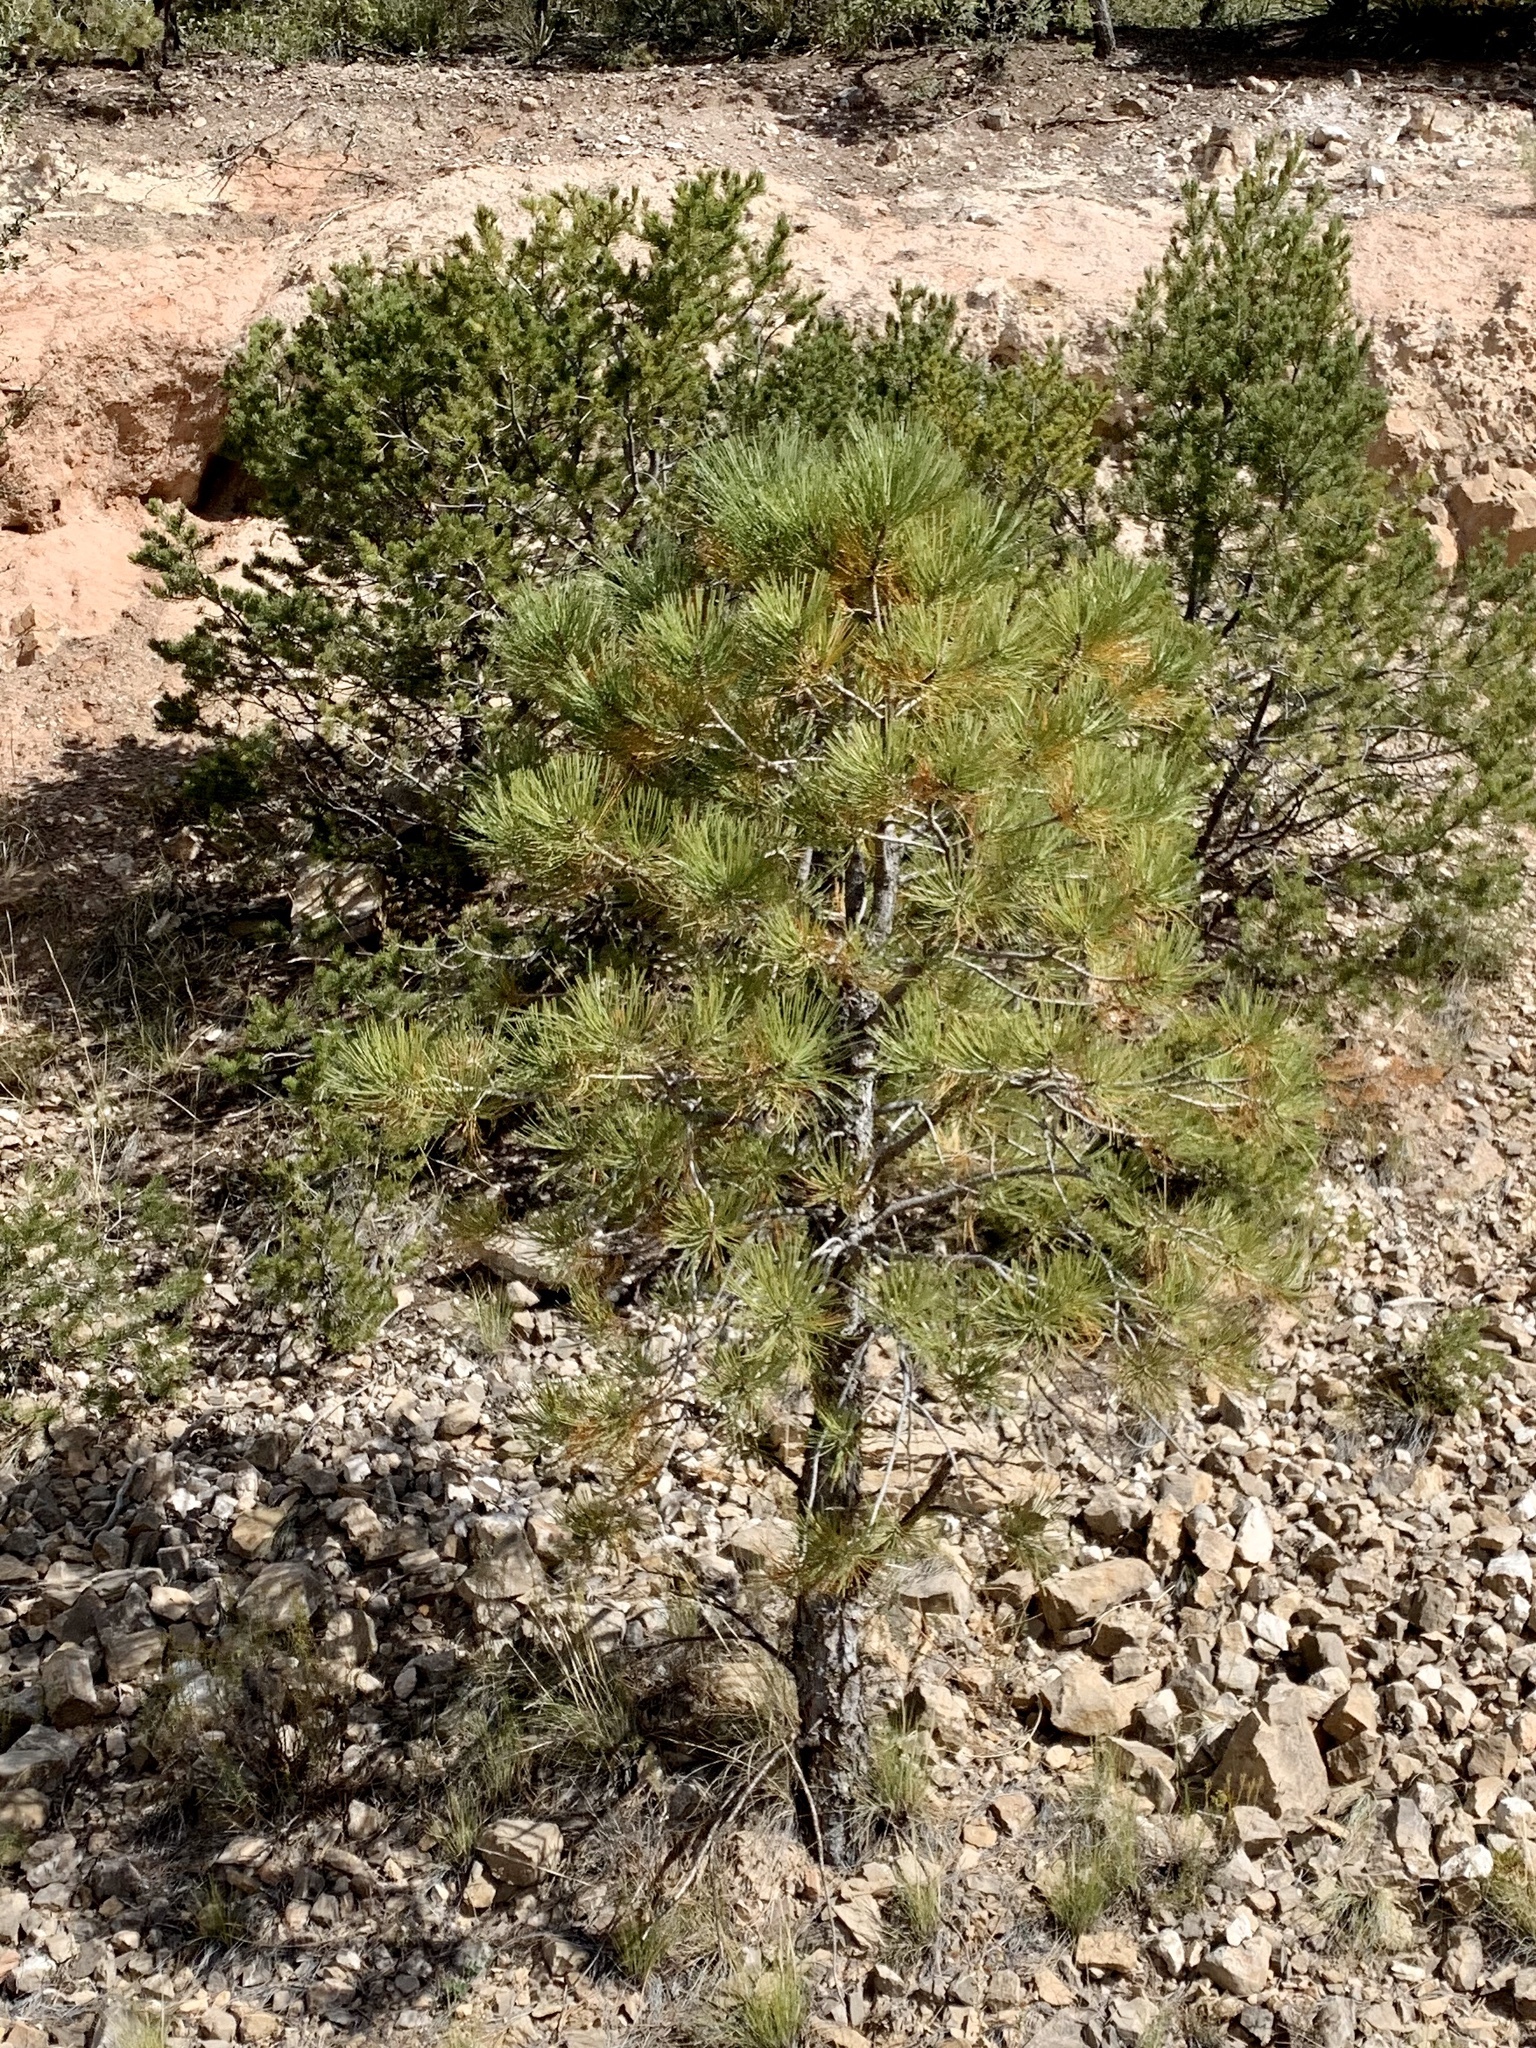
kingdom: Plantae
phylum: Tracheophyta
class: Pinopsida
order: Pinales
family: Pinaceae
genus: Pinus
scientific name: Pinus ponderosa
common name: Western yellow-pine
